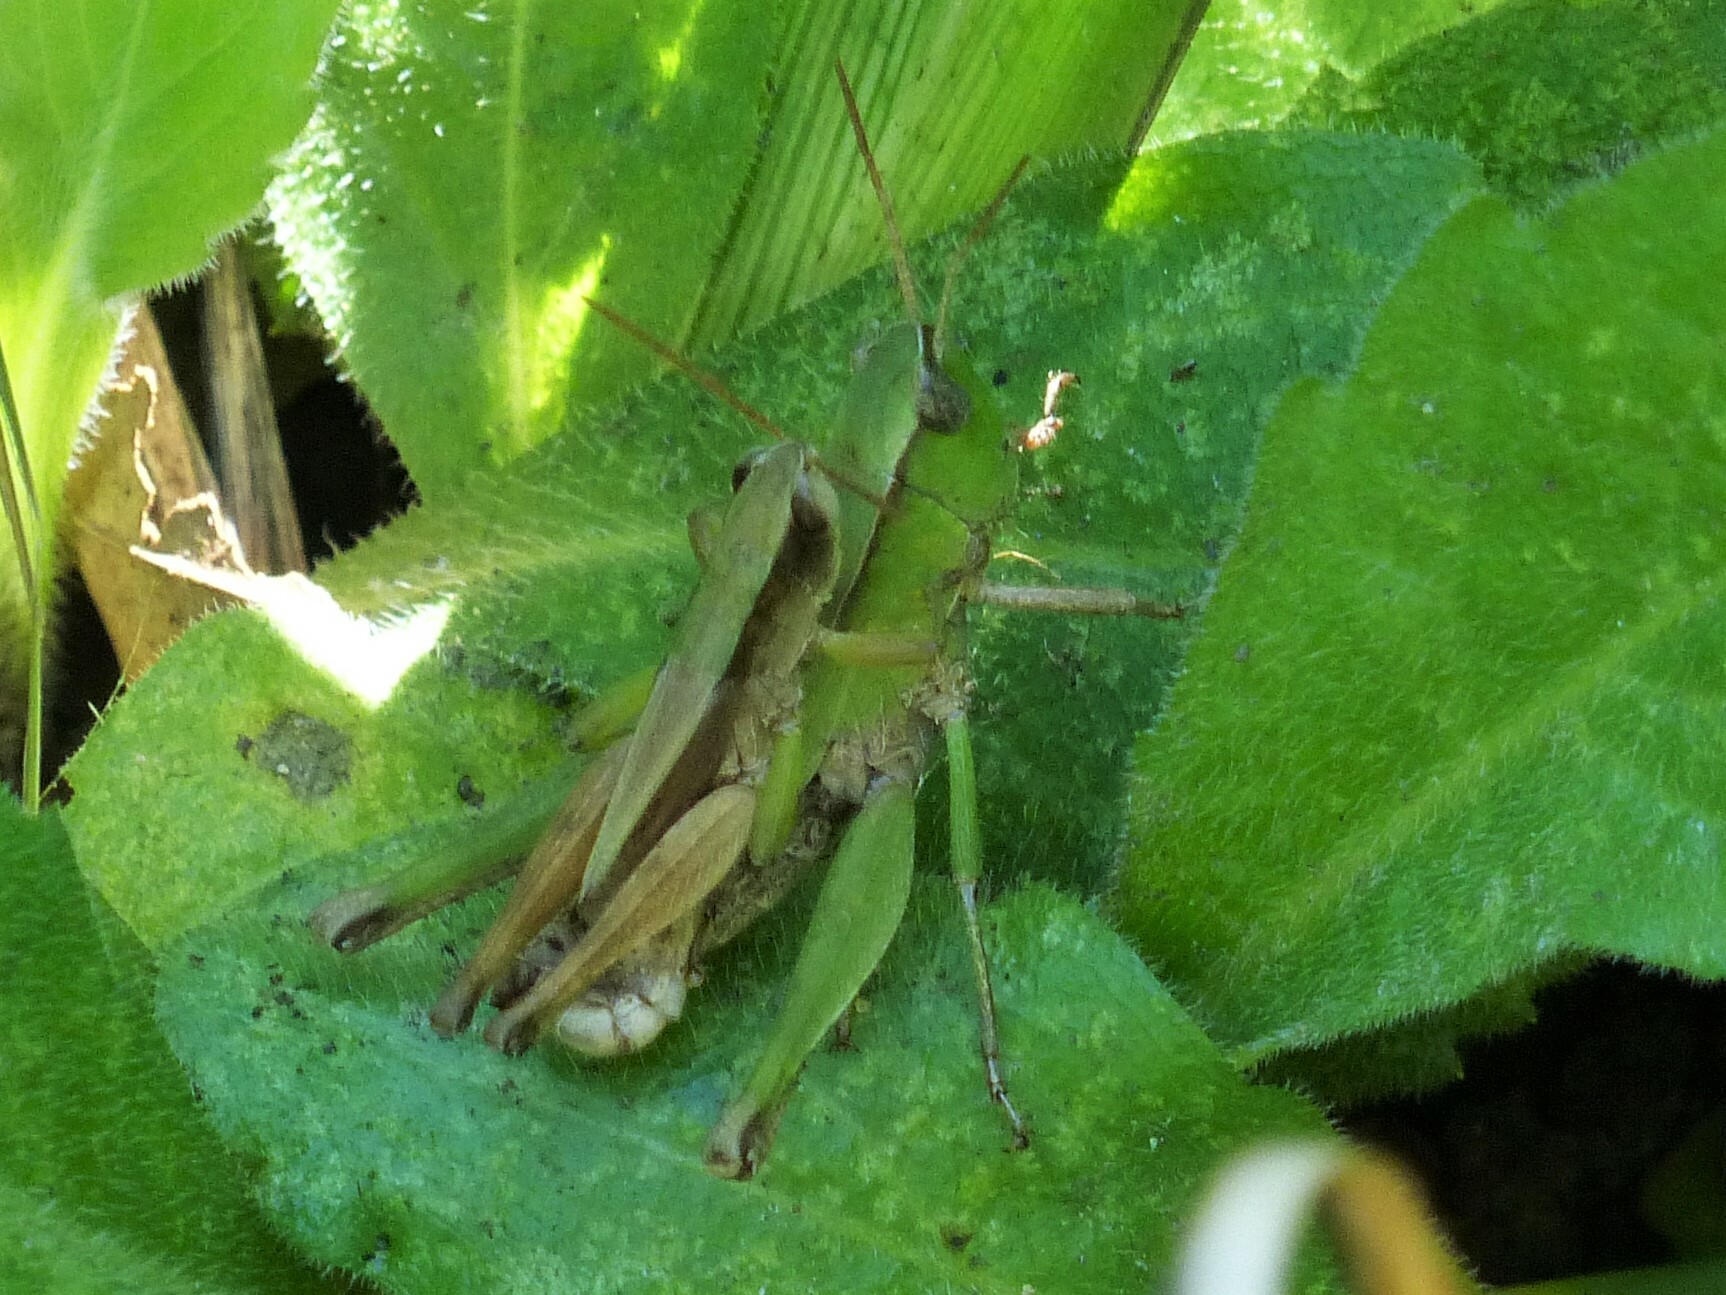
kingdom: Animalia
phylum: Arthropoda
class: Insecta
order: Orthoptera
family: Acrididae
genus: Dichromorpha
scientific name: Dichromorpha viridis
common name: Short-winged green grasshopper
